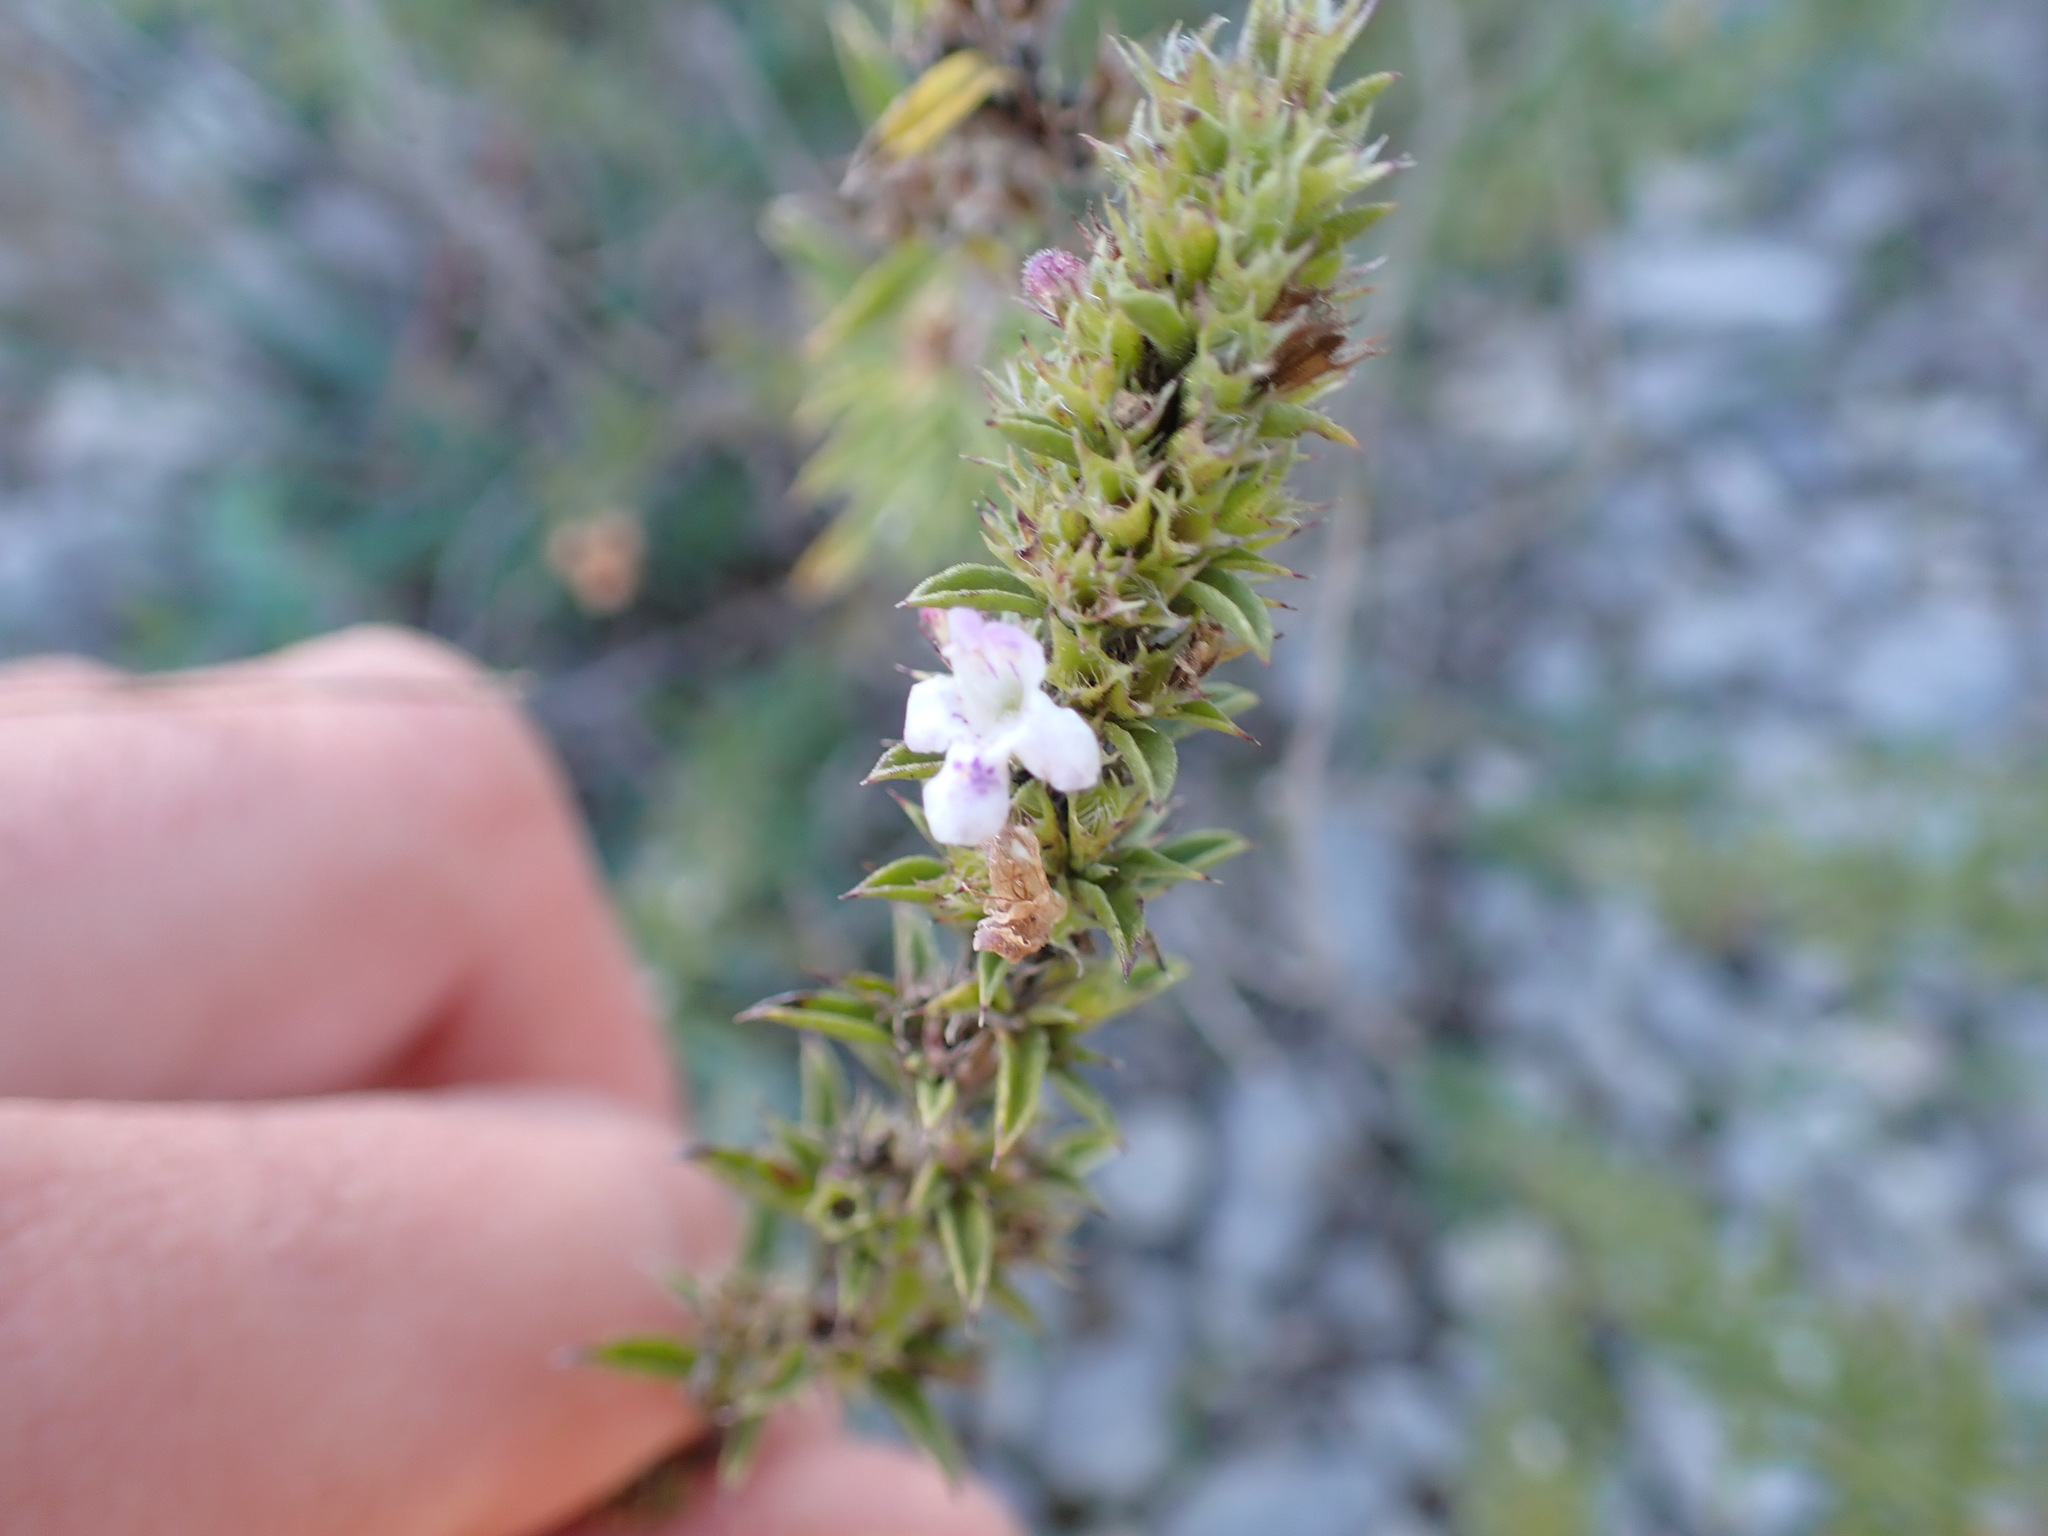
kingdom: Plantae
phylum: Tracheophyta
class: Magnoliopsida
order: Lamiales
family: Lamiaceae
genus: Satureja
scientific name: Satureja montana
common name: Winter savory
